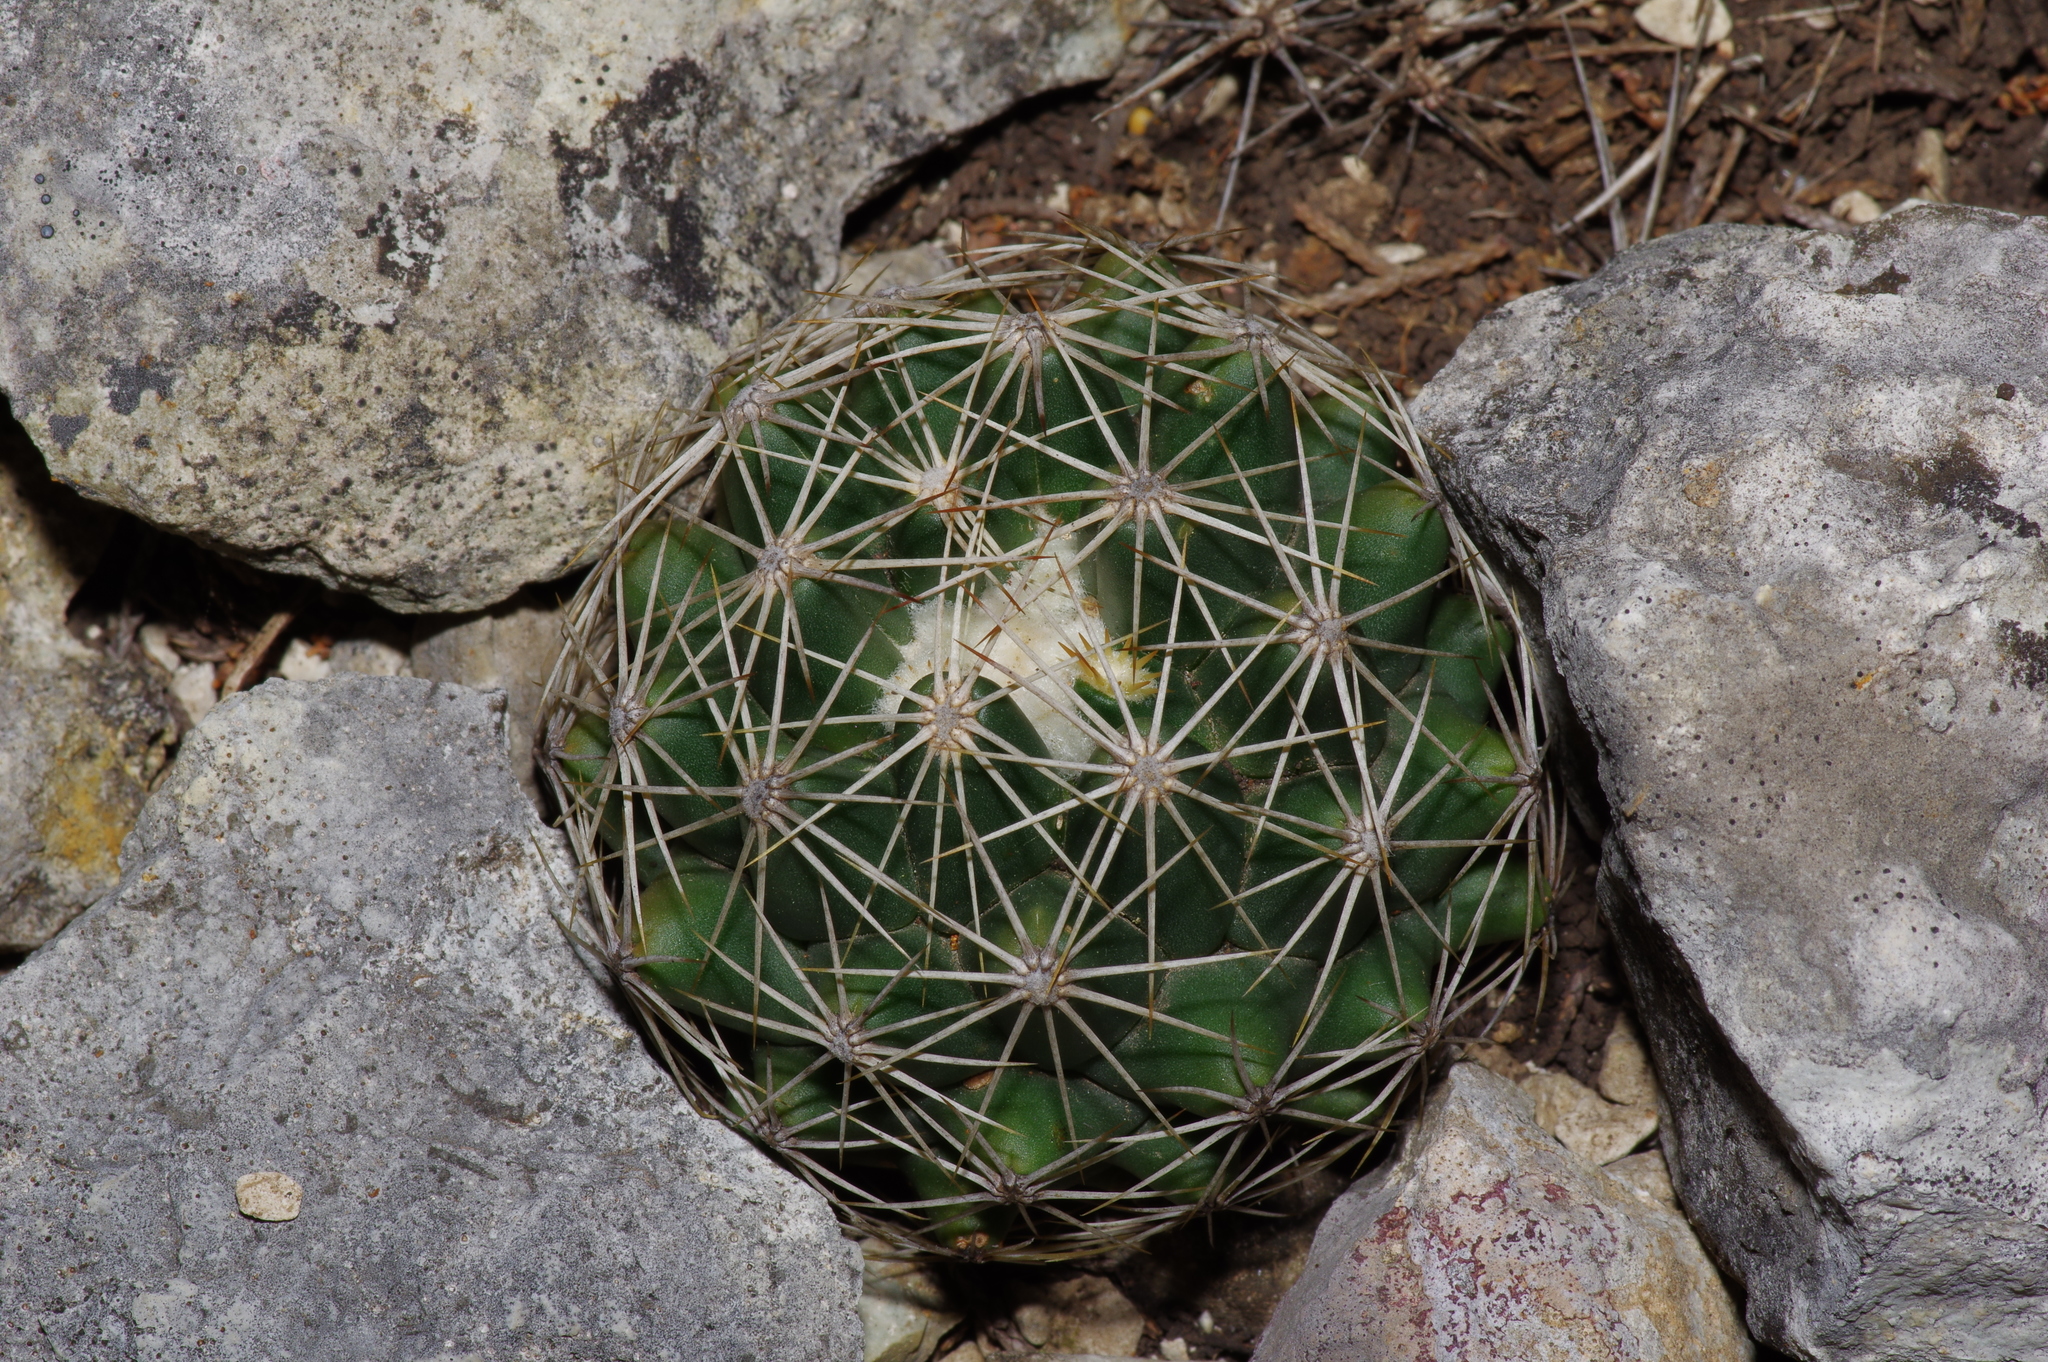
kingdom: Plantae
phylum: Tracheophyta
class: Magnoliopsida
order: Caryophyllales
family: Cactaceae
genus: Coryphantha
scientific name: Coryphantha sulcata
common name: Finger cactus
